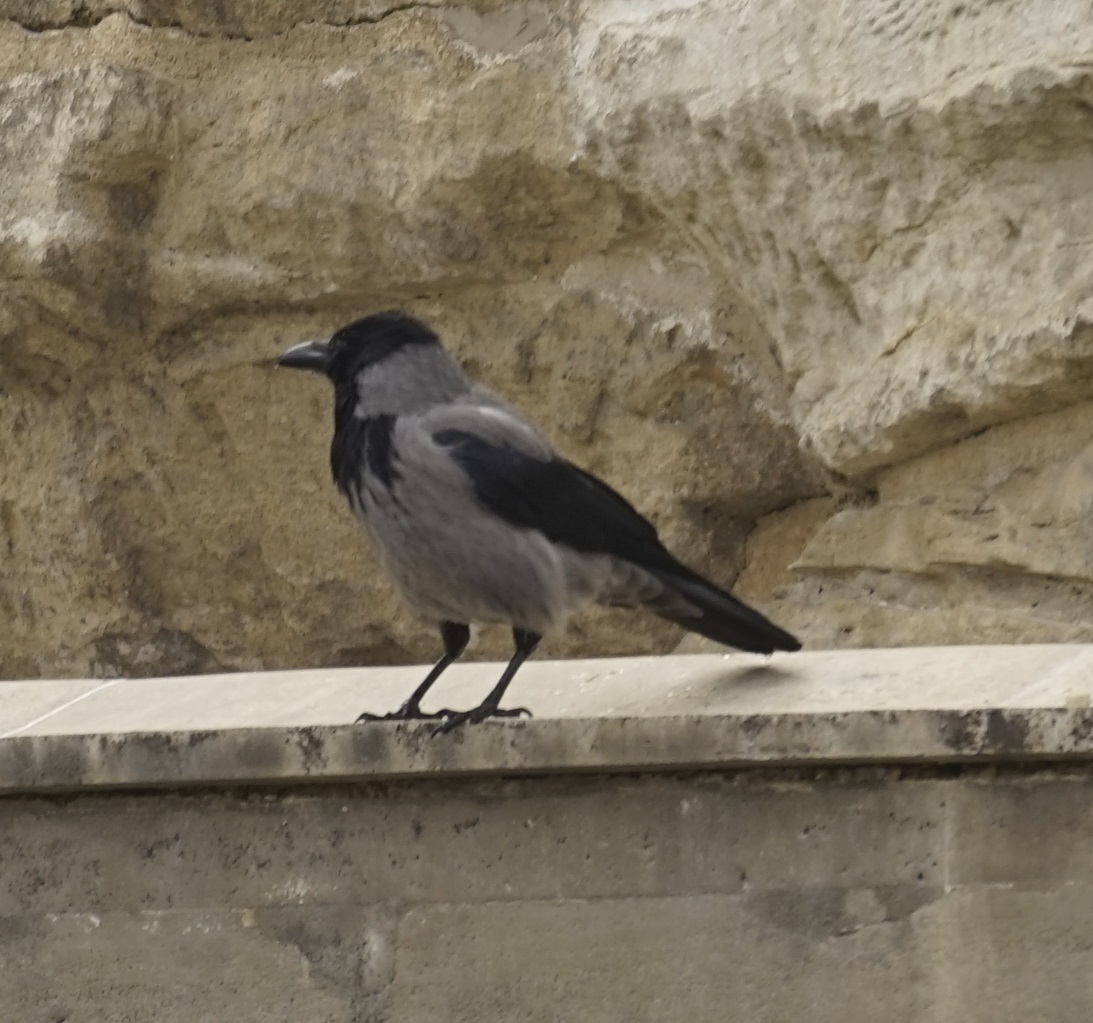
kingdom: Animalia
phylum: Chordata
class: Aves
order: Passeriformes
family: Corvidae
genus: Corvus
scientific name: Corvus cornix
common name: Hooded crow
